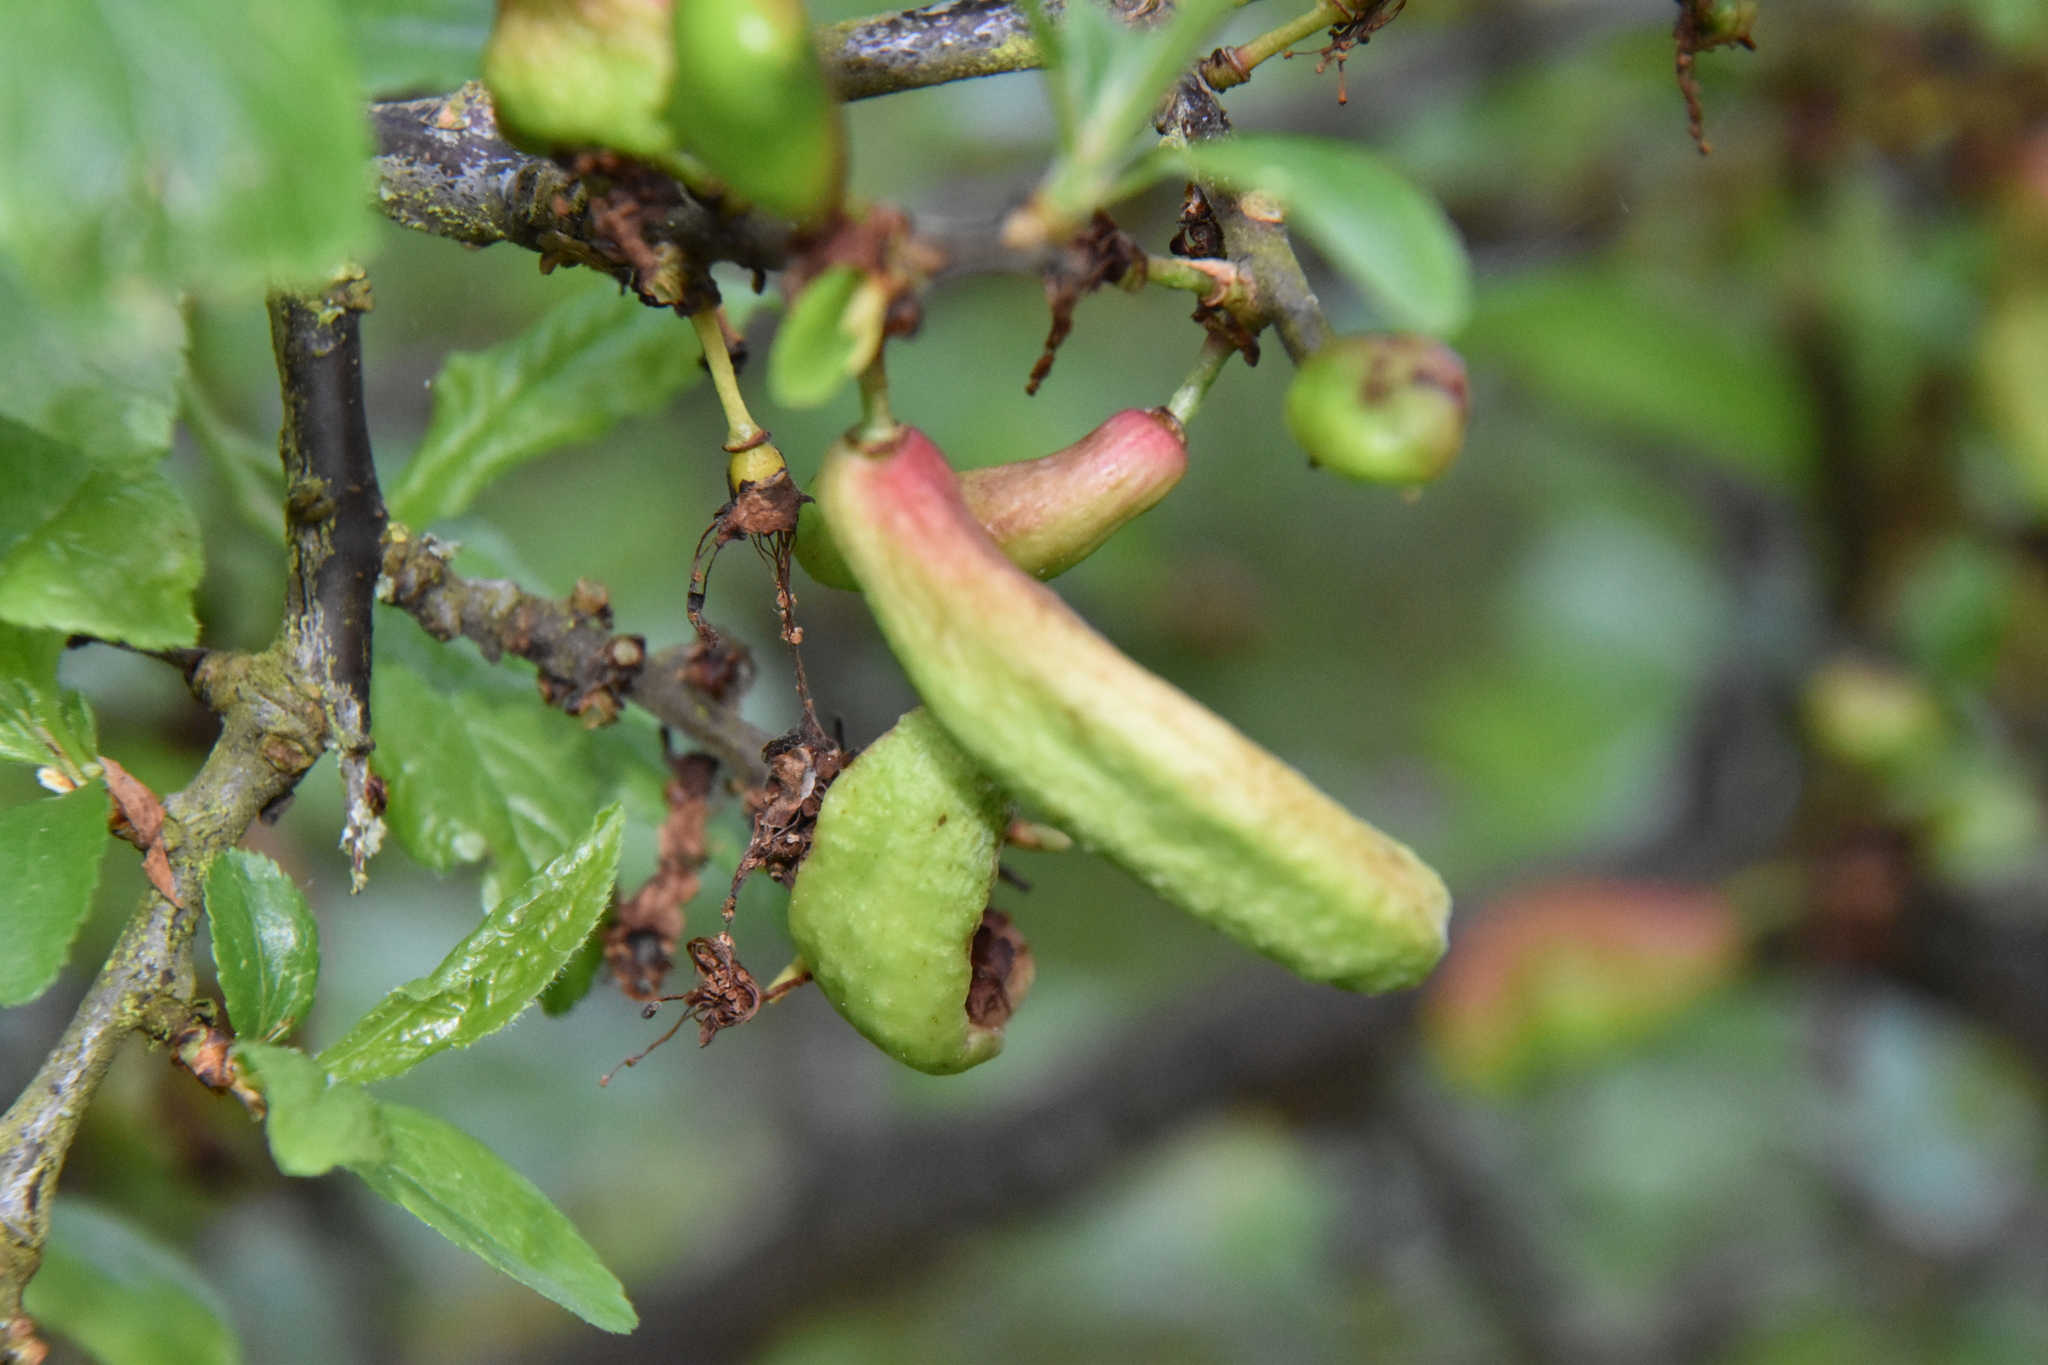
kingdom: Fungi
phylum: Ascomycota
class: Taphrinomycetes
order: Taphrinales
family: Taphrinaceae
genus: Taphrina
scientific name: Taphrina pruni
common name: Pocket plum
